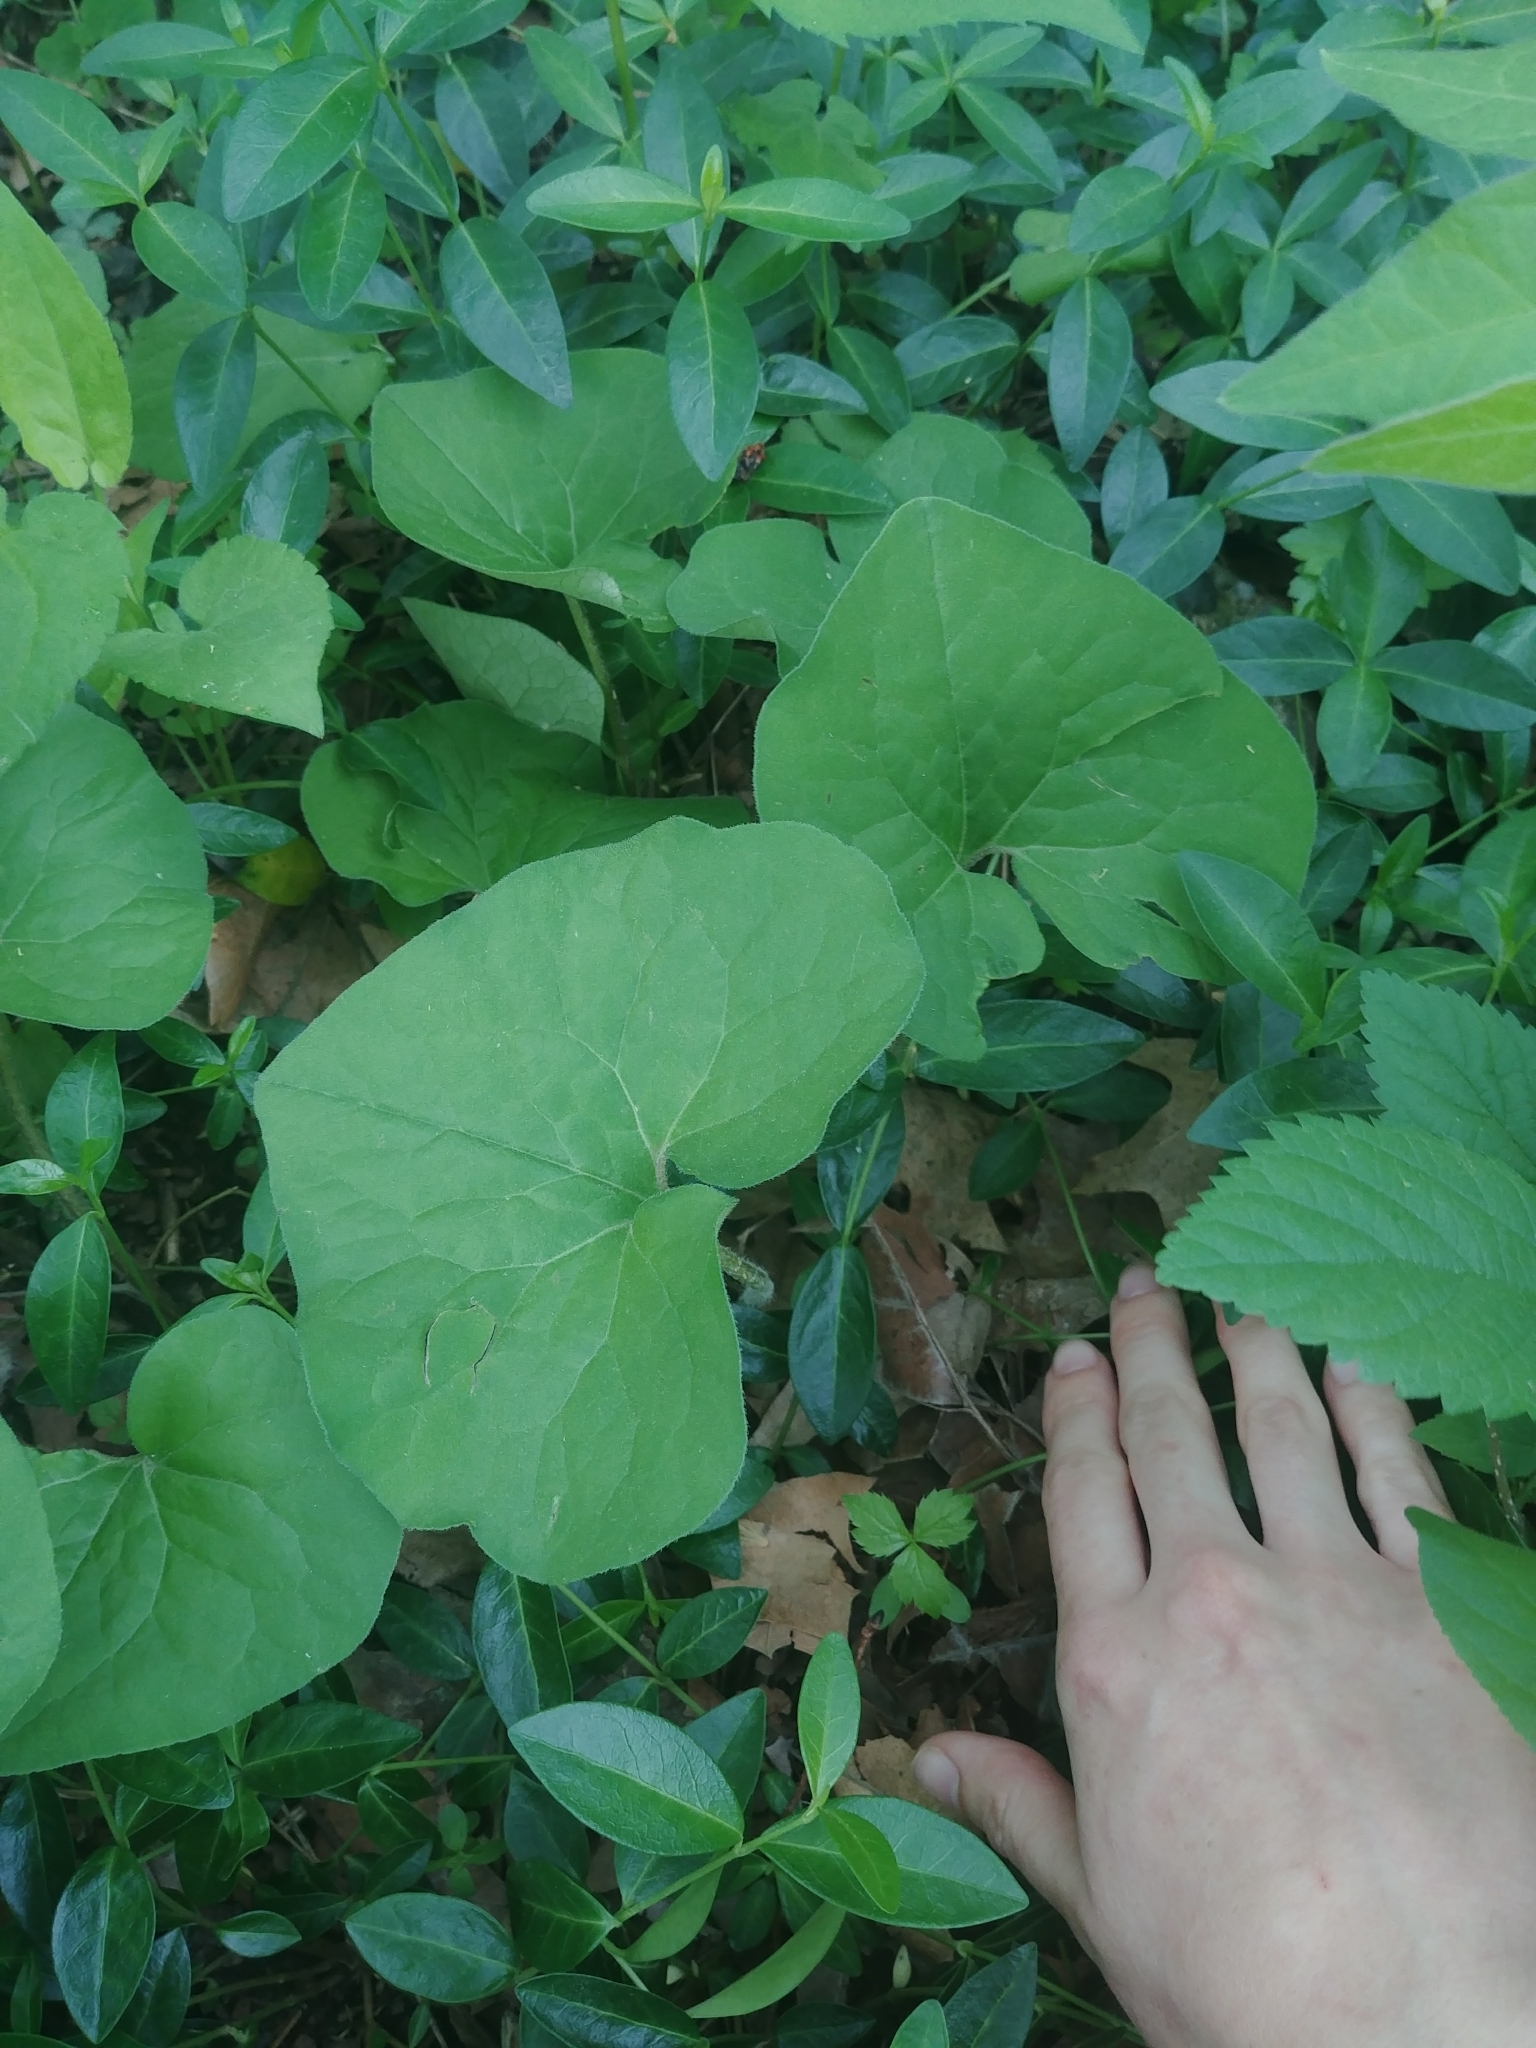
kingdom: Plantae
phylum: Tracheophyta
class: Magnoliopsida
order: Piperales
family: Aristolochiaceae
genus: Asarum
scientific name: Asarum canadense
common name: Wild ginger
